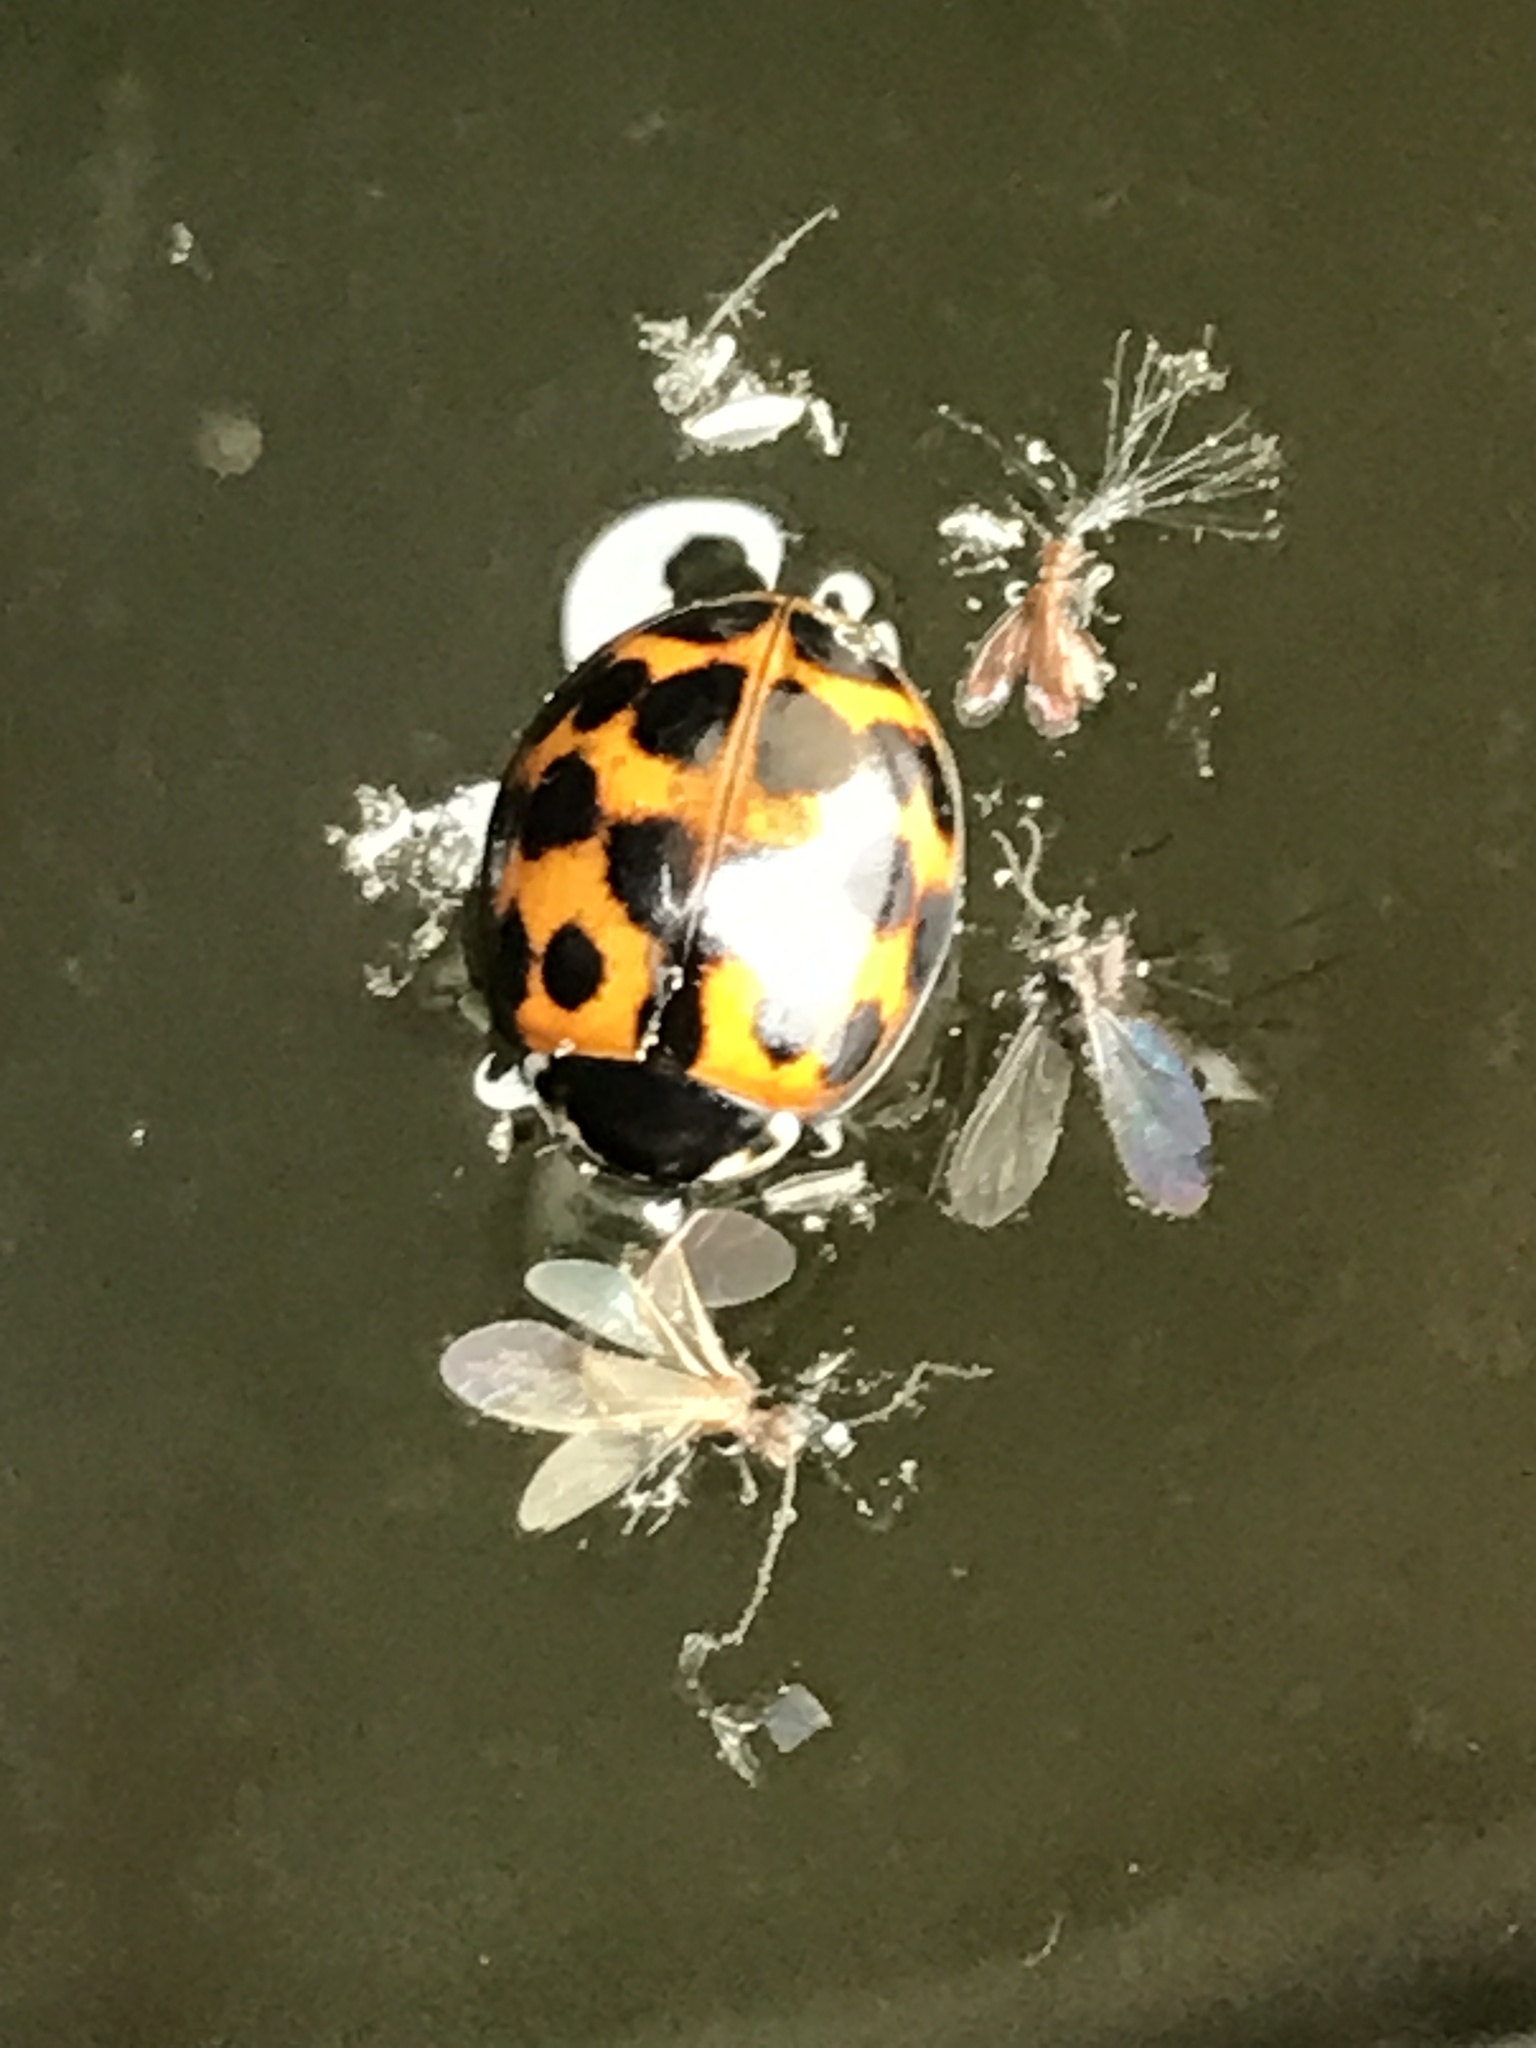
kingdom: Animalia
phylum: Arthropoda
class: Insecta
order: Coleoptera
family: Coccinellidae
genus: Harmonia
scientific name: Harmonia axyridis
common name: Harlequin ladybird
